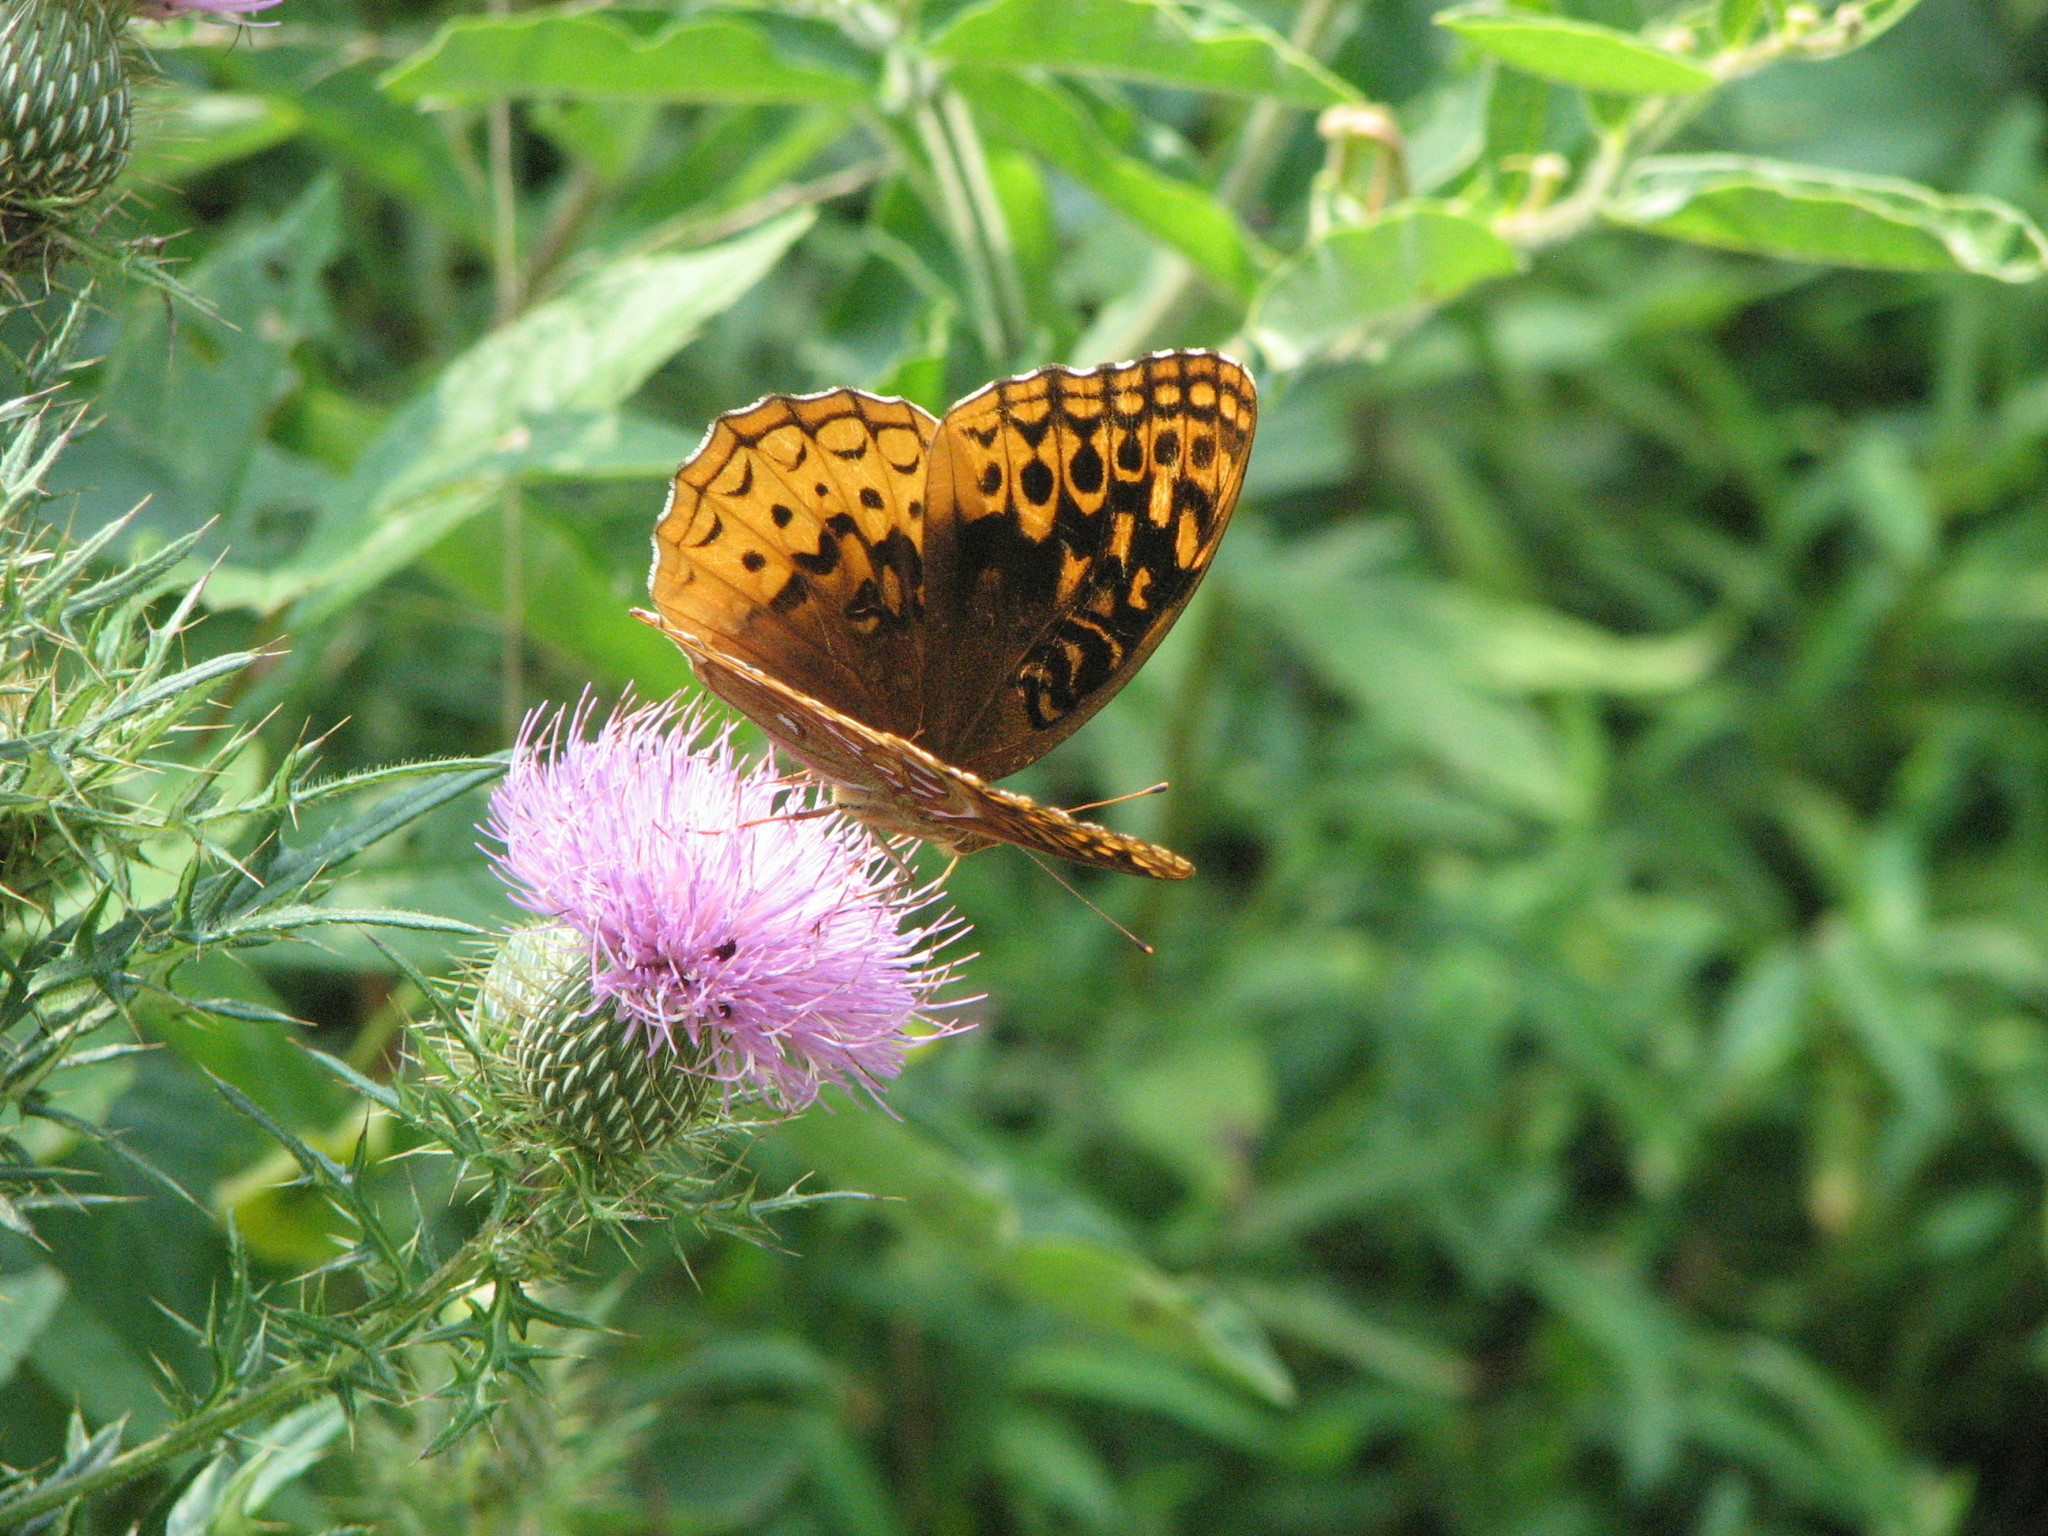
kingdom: Animalia
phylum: Arthropoda
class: Insecta
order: Lepidoptera
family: Nymphalidae
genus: Speyeria
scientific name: Speyeria cybele
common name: Great spangled fritillary
